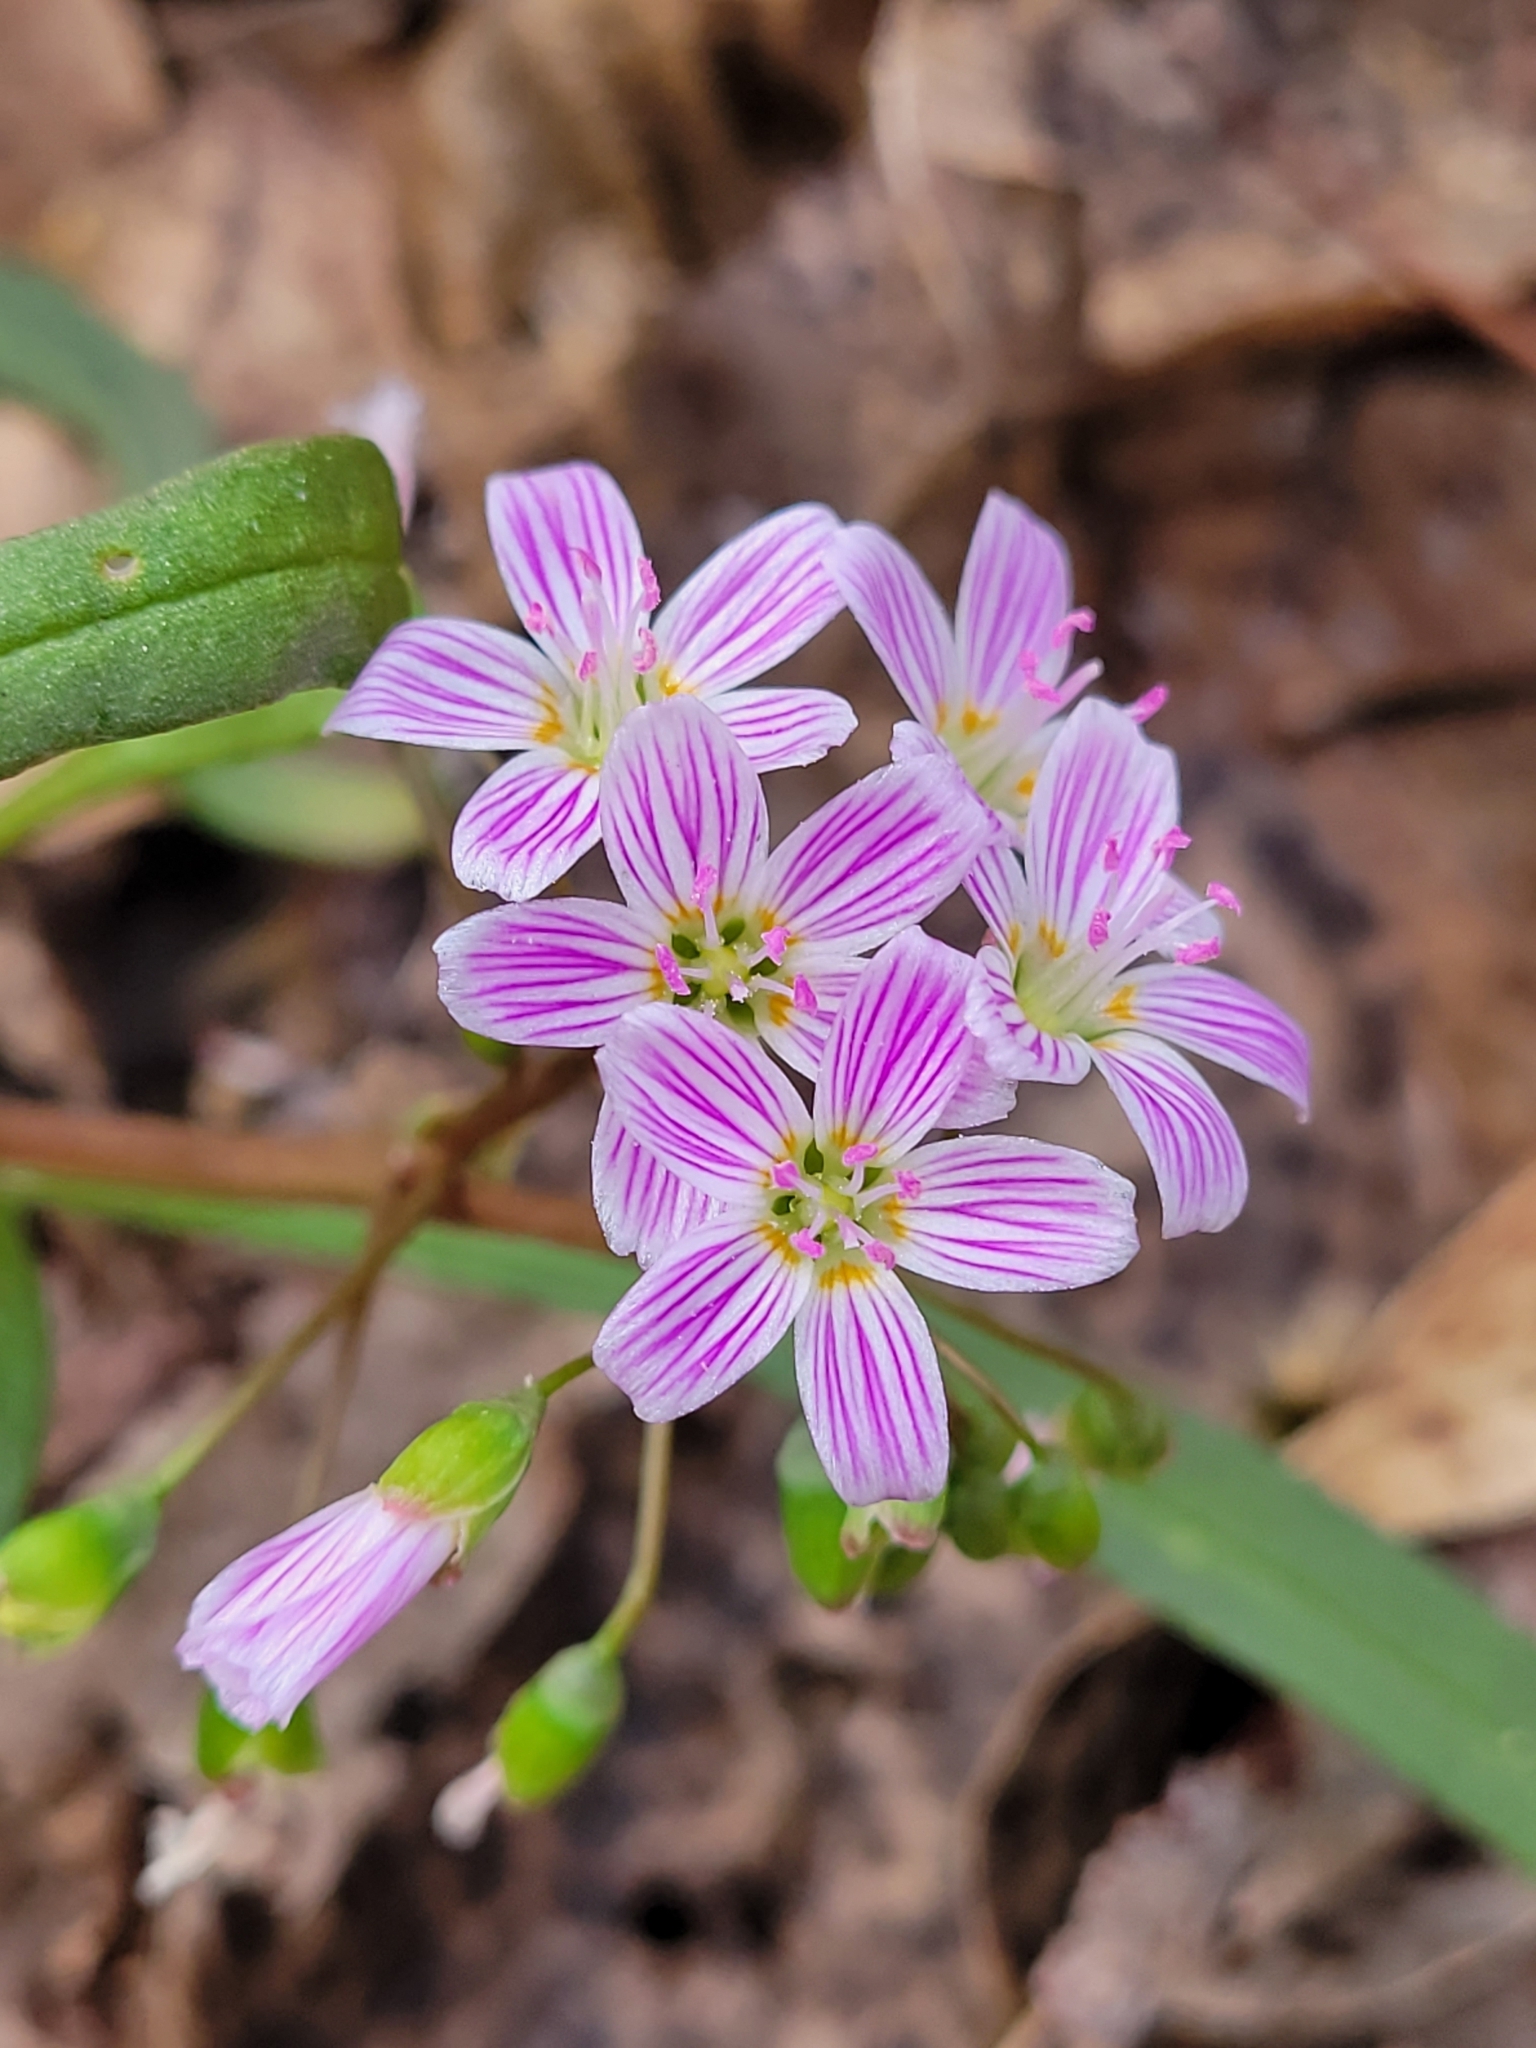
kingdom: Plantae
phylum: Tracheophyta
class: Magnoliopsida
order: Caryophyllales
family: Montiaceae
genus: Claytonia
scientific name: Claytonia virginica
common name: Virginia springbeauty
